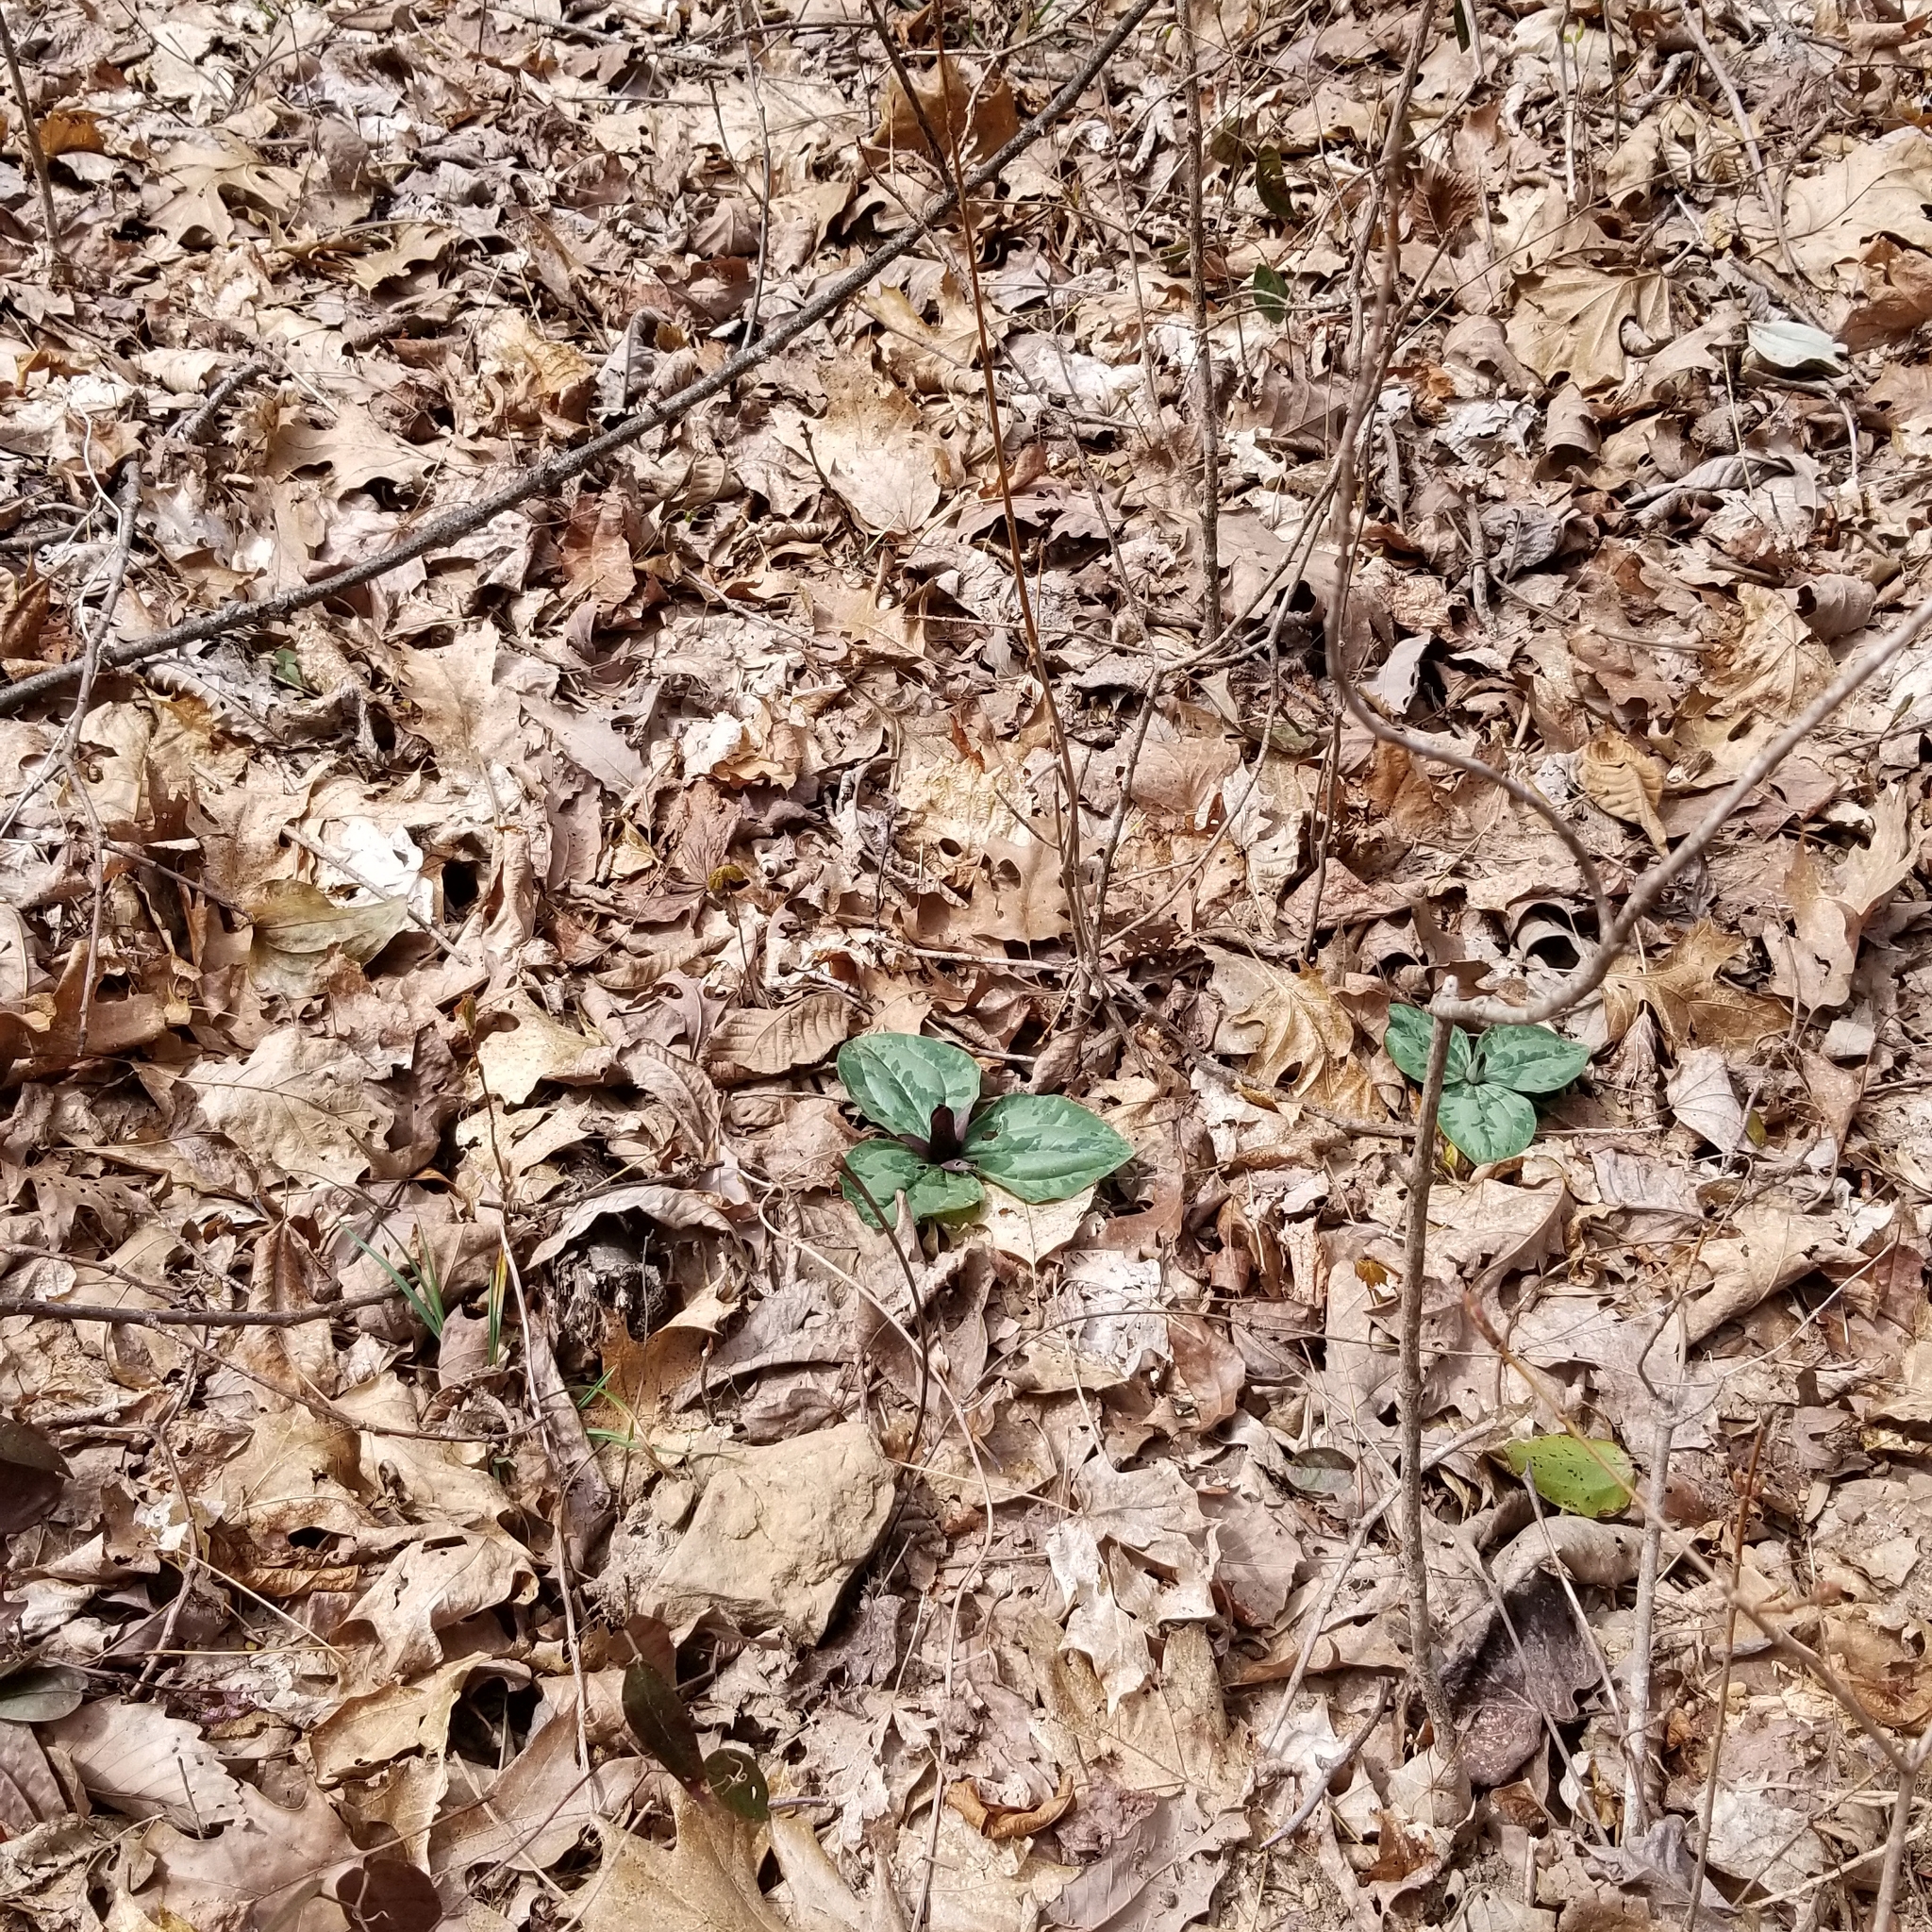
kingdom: Plantae
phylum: Tracheophyta
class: Liliopsida
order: Liliales
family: Melanthiaceae
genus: Trillium
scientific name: Trillium decumbens
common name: Decumbent trillium
